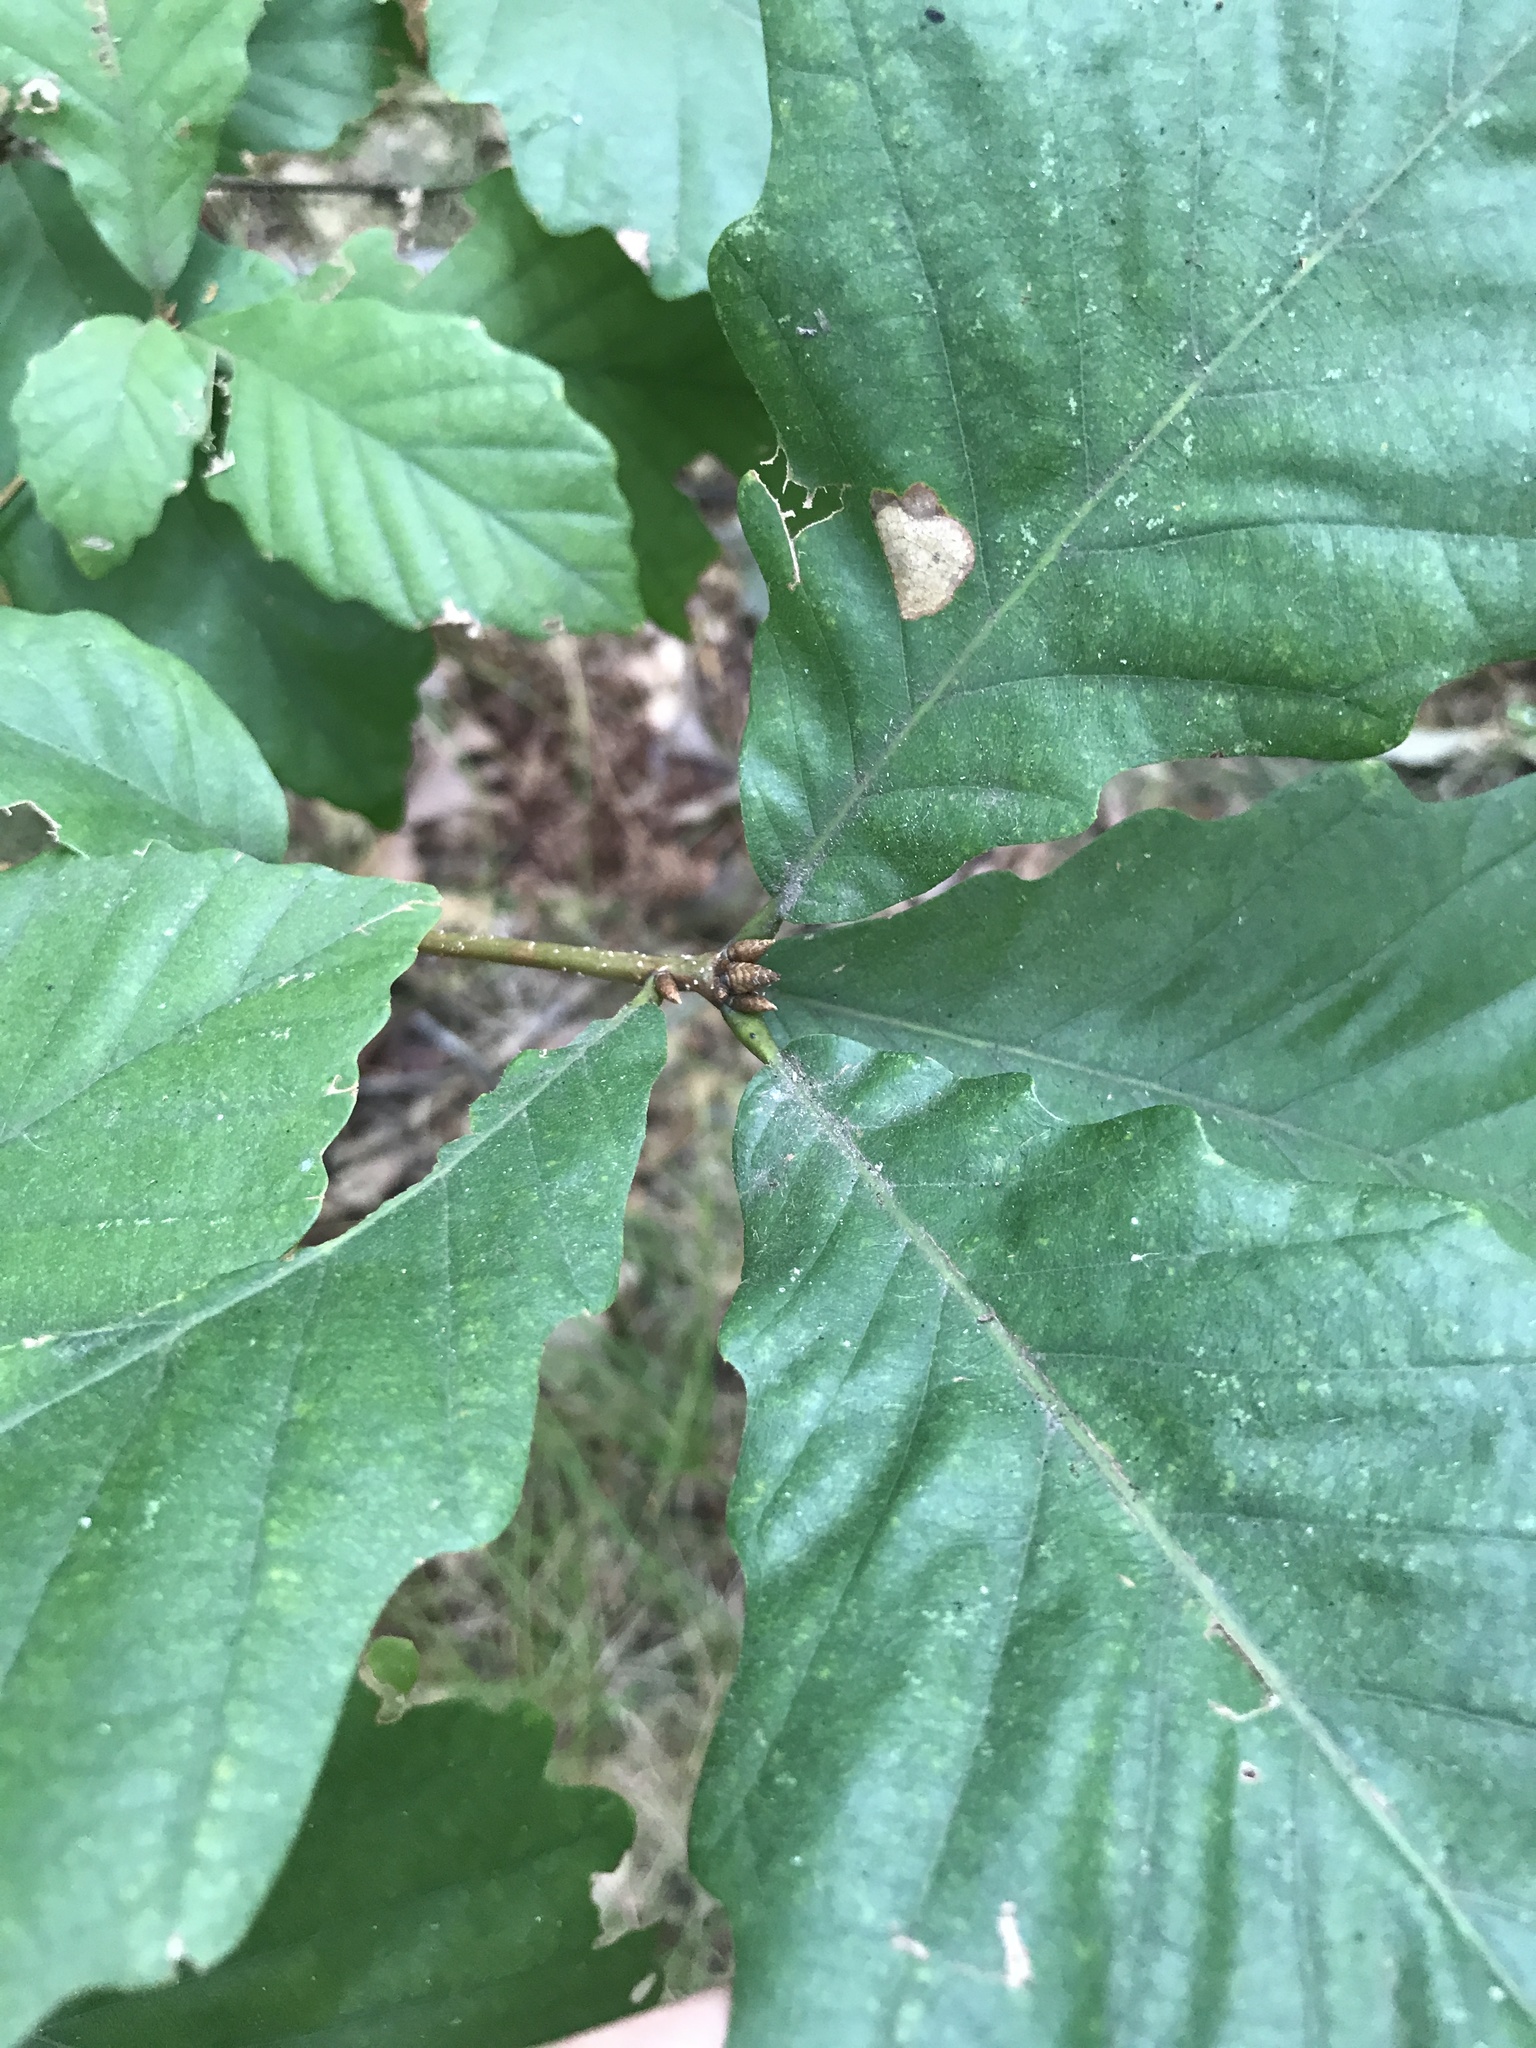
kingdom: Plantae
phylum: Tracheophyta
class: Magnoliopsida
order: Fagales
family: Fagaceae
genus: Quercus
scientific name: Quercus montana
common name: Chestnut oak
